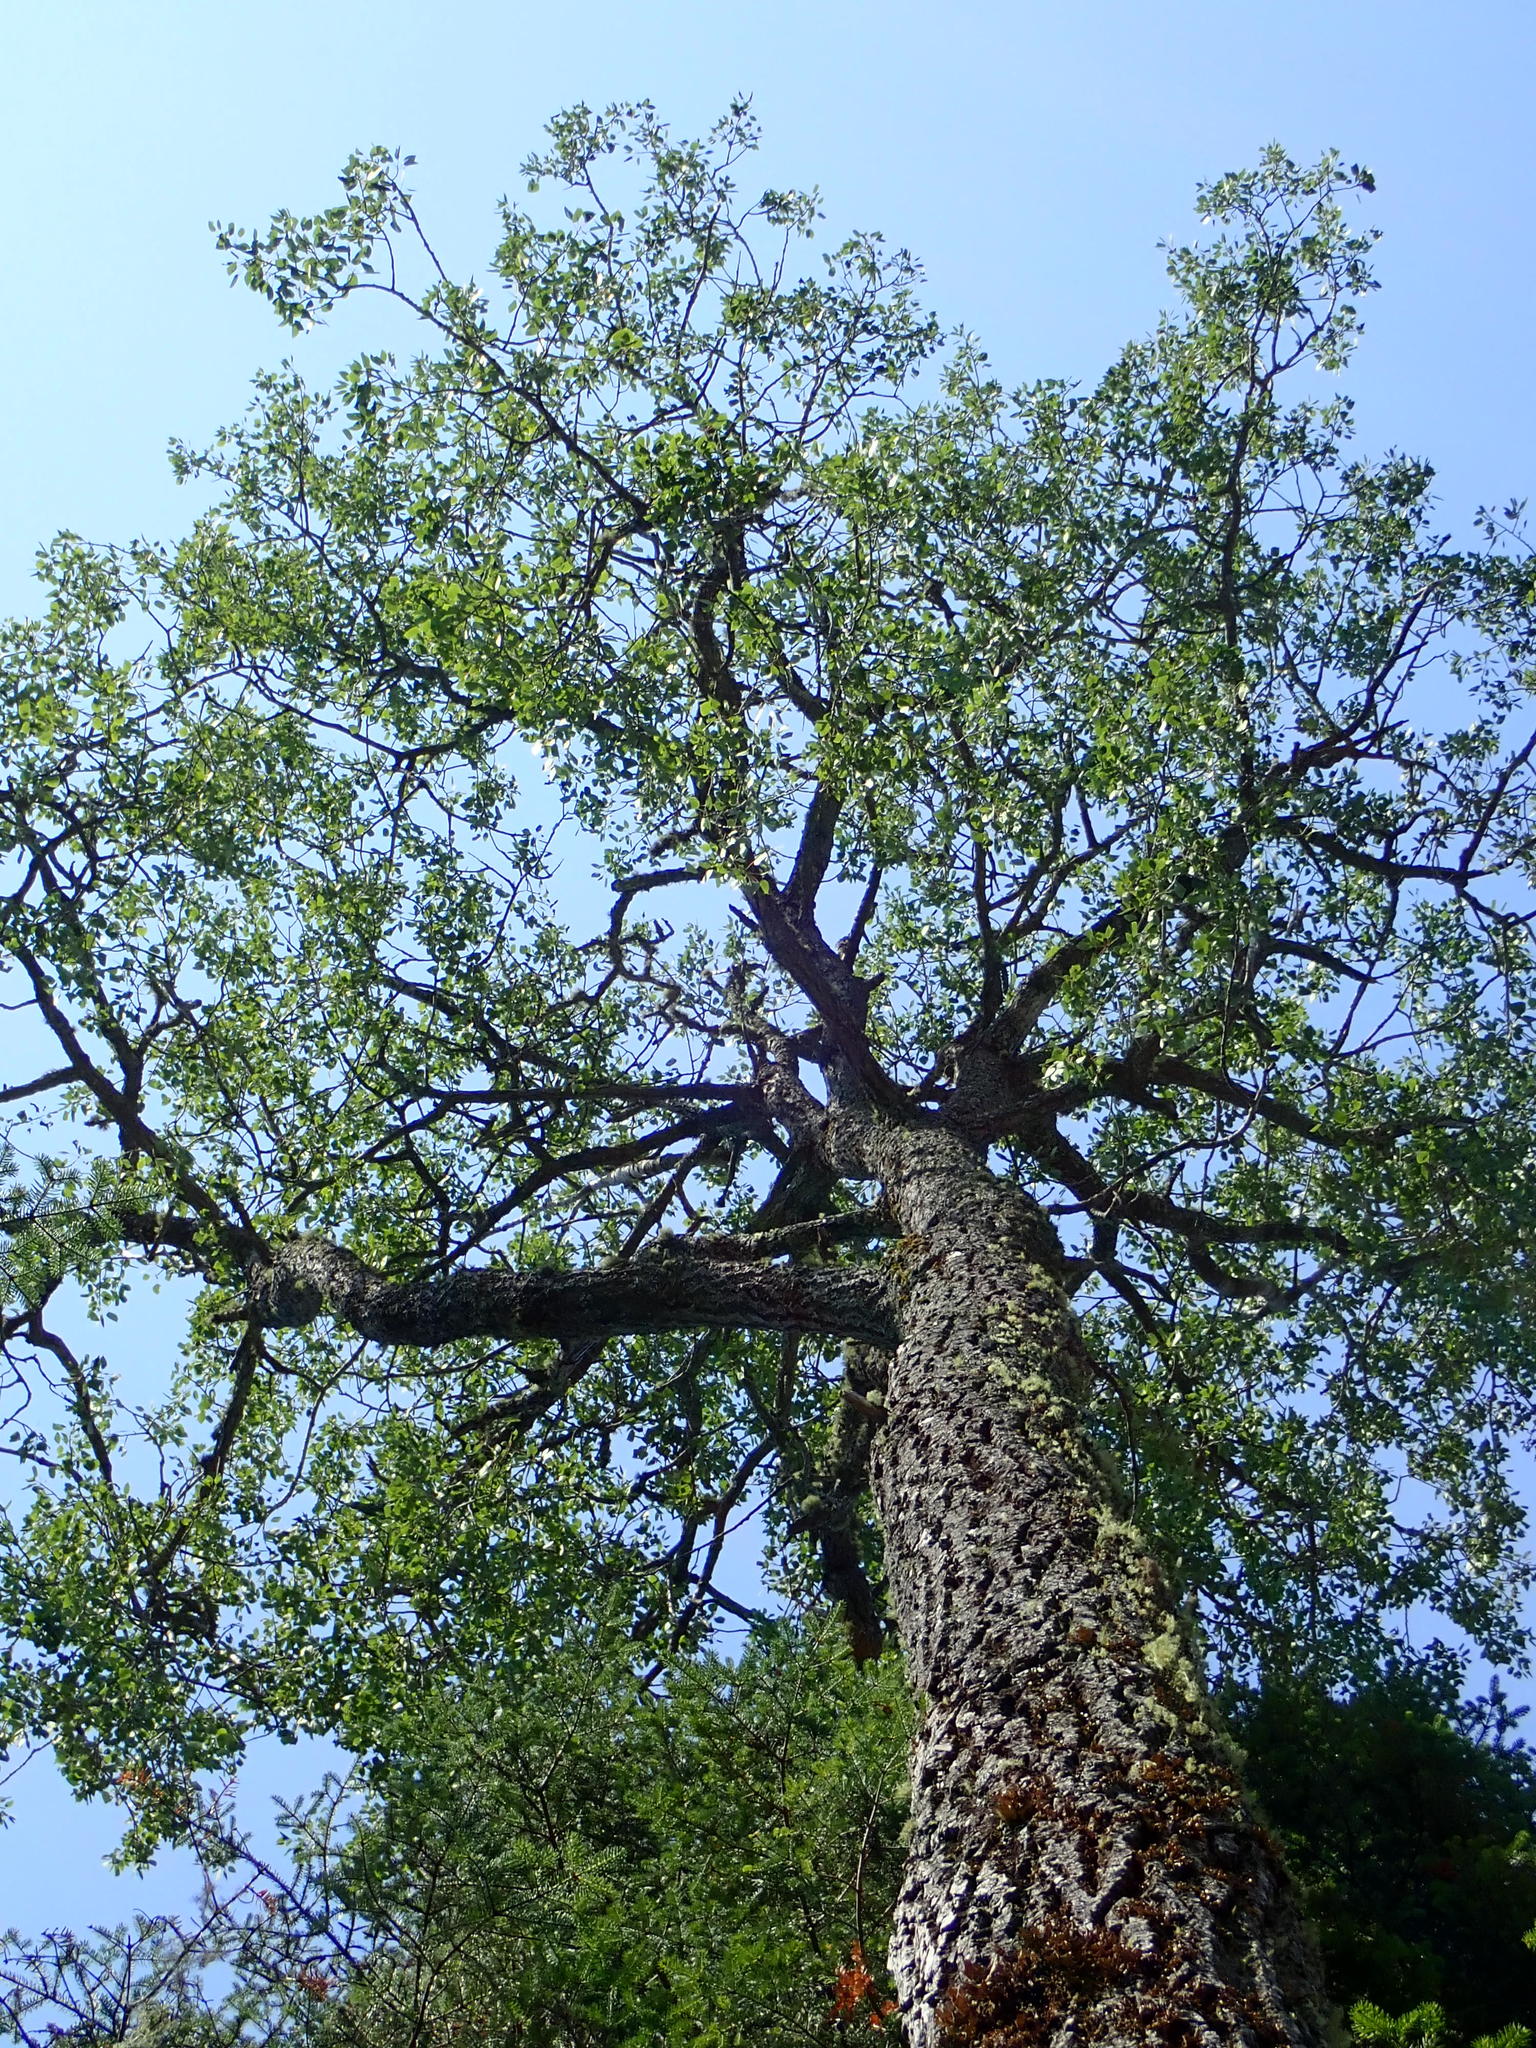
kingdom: Plantae
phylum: Tracheophyta
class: Magnoliopsida
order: Malpighiales
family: Salicaceae
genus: Populus
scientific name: Populus tremuloides
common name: Quaking aspen
